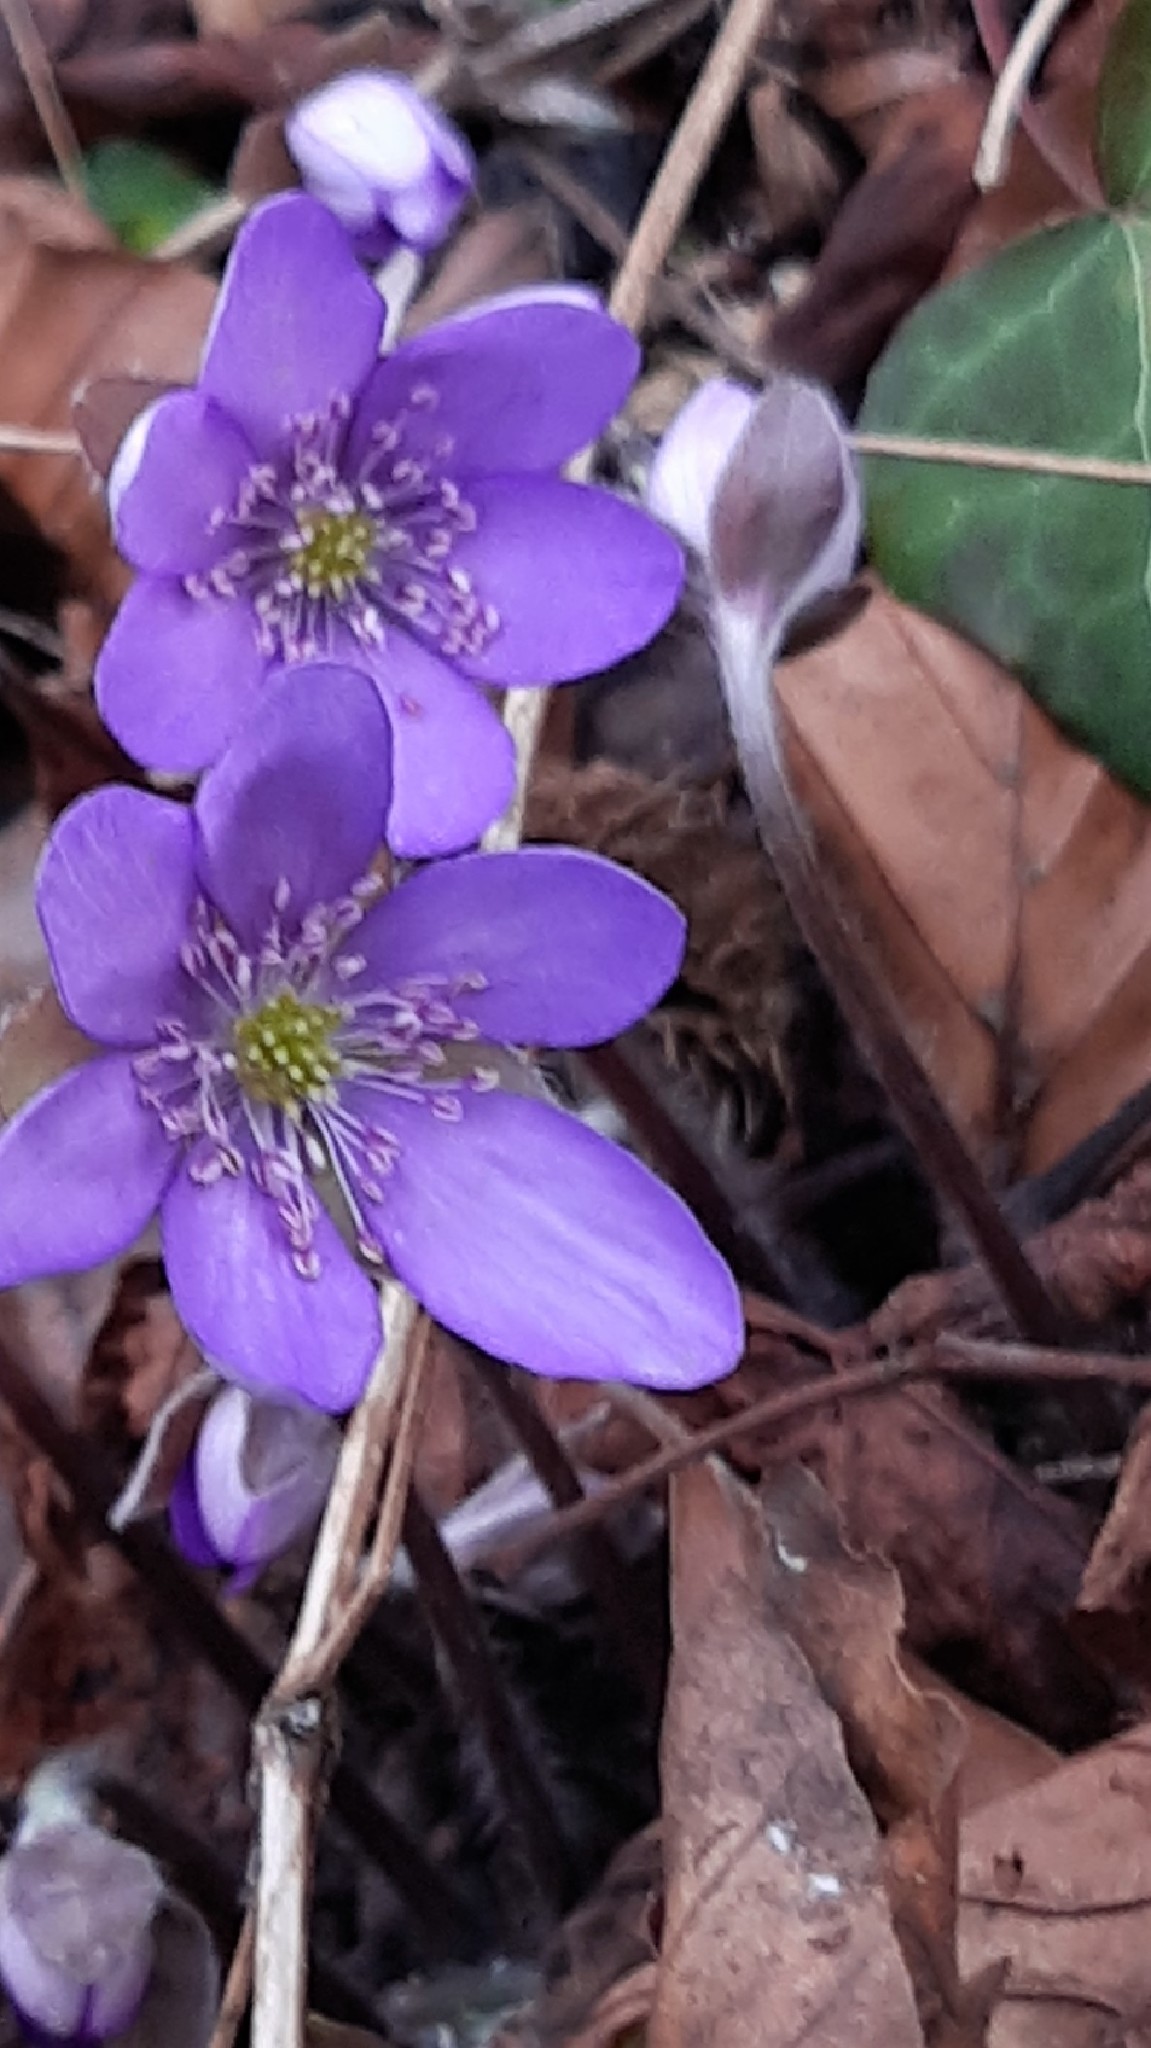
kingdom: Plantae
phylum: Tracheophyta
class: Magnoliopsida
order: Ranunculales
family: Ranunculaceae
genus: Hepatica
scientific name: Hepatica nobilis
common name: Liverleaf
